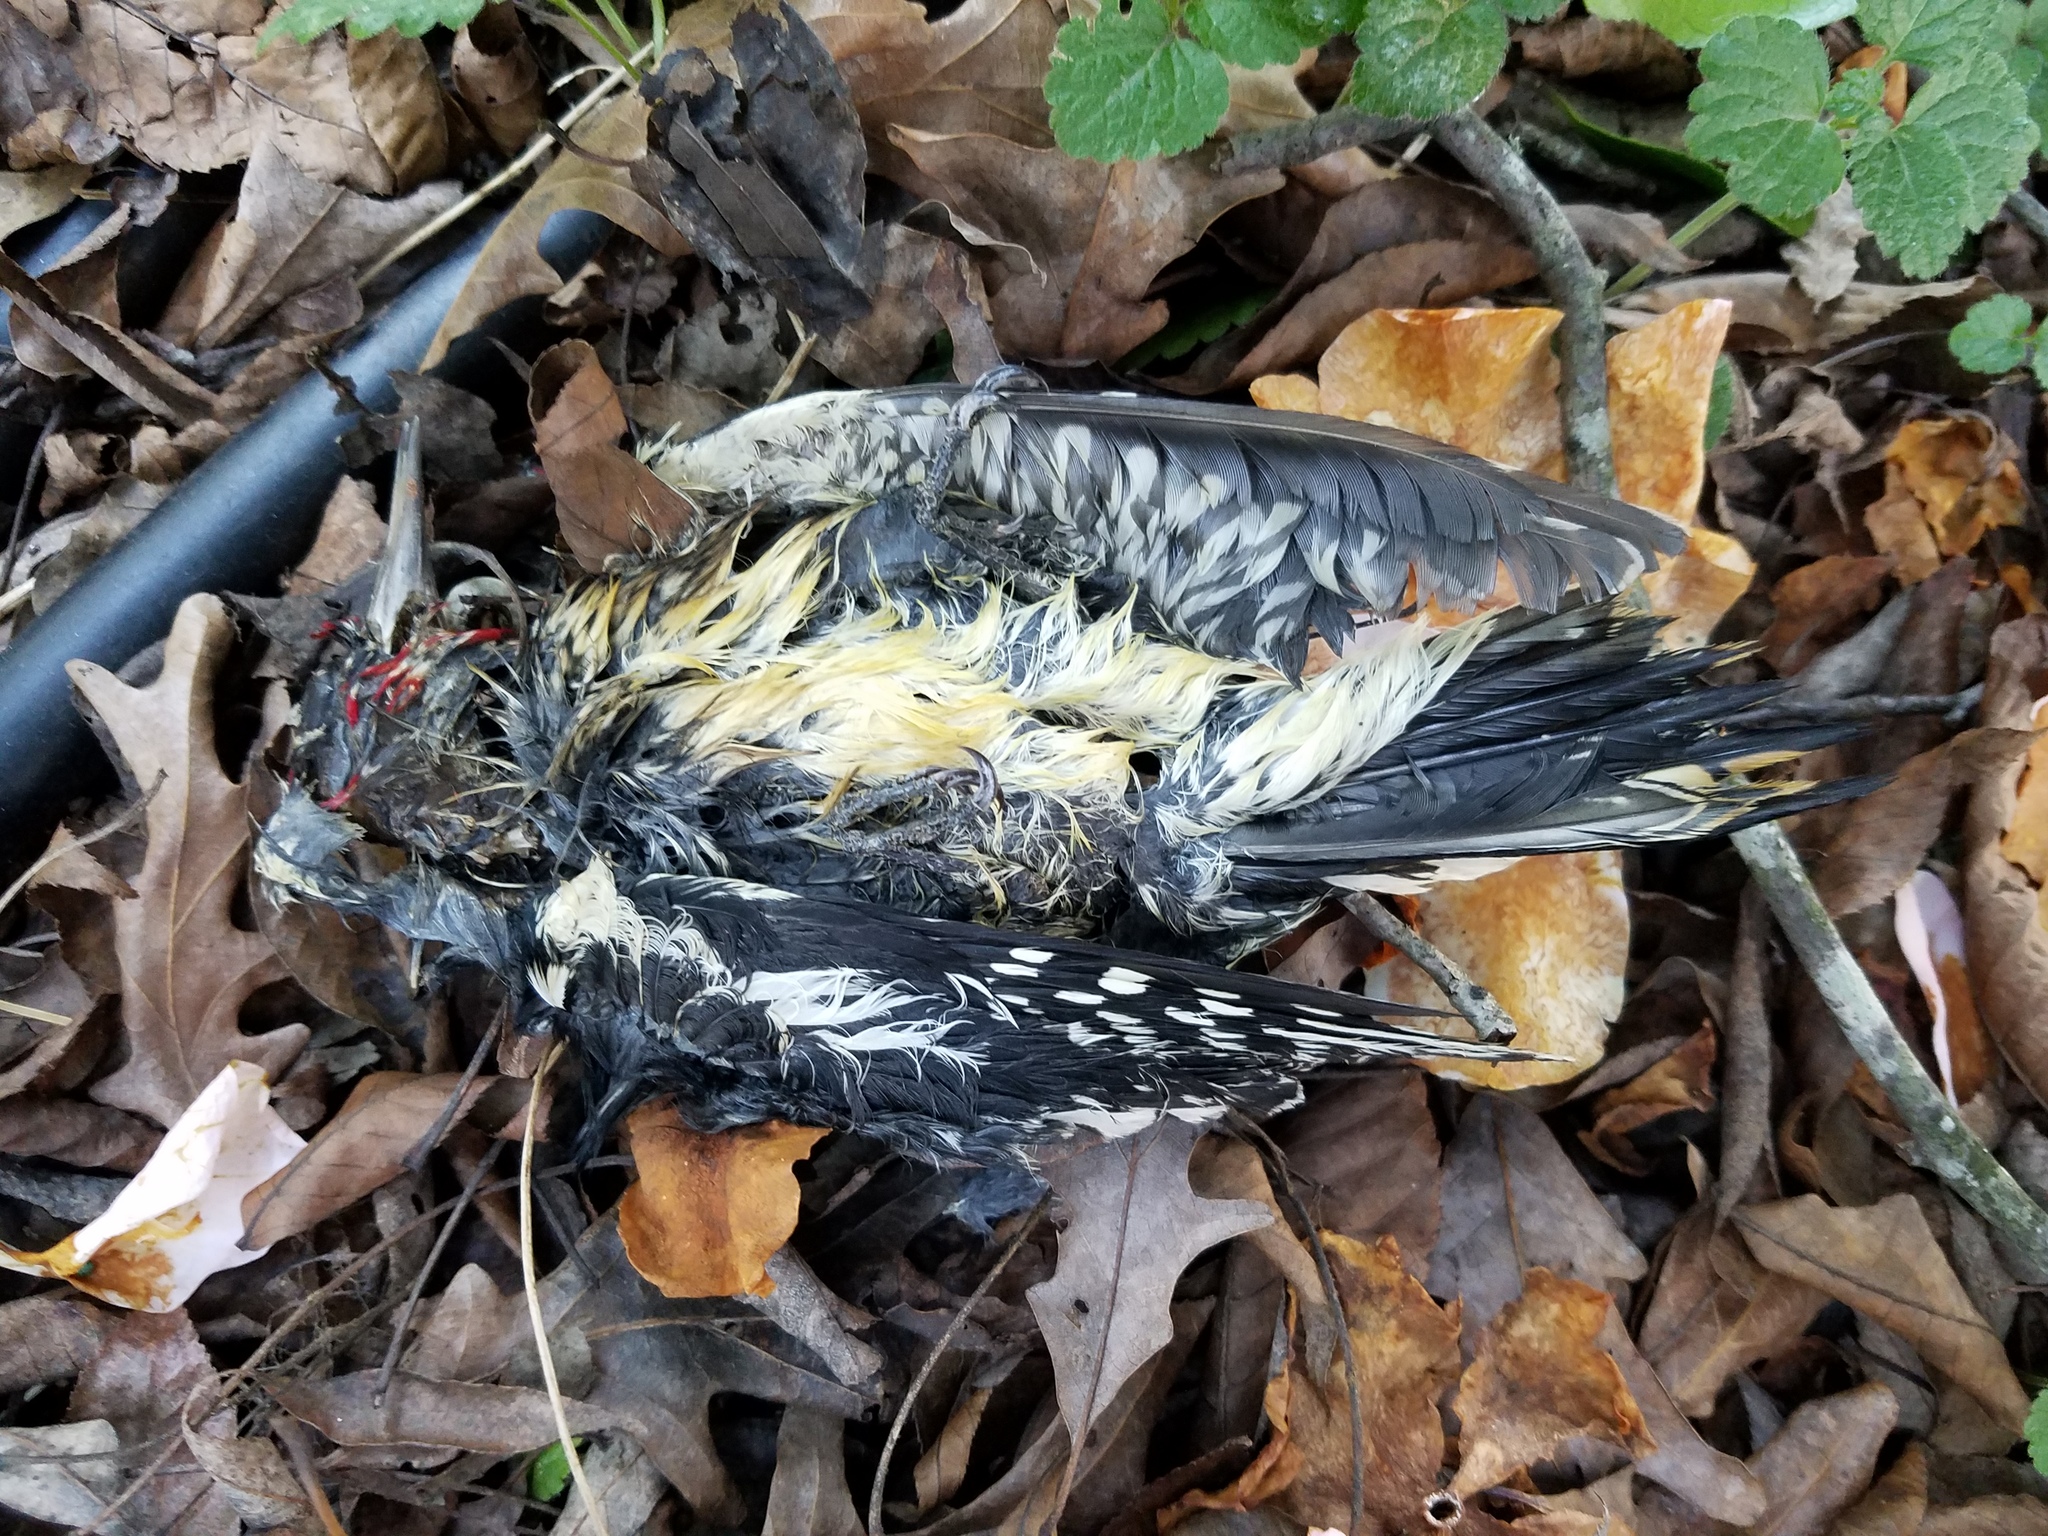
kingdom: Animalia
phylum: Chordata
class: Aves
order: Piciformes
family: Picidae
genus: Sphyrapicus
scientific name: Sphyrapicus varius
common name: Yellow-bellied sapsucker
